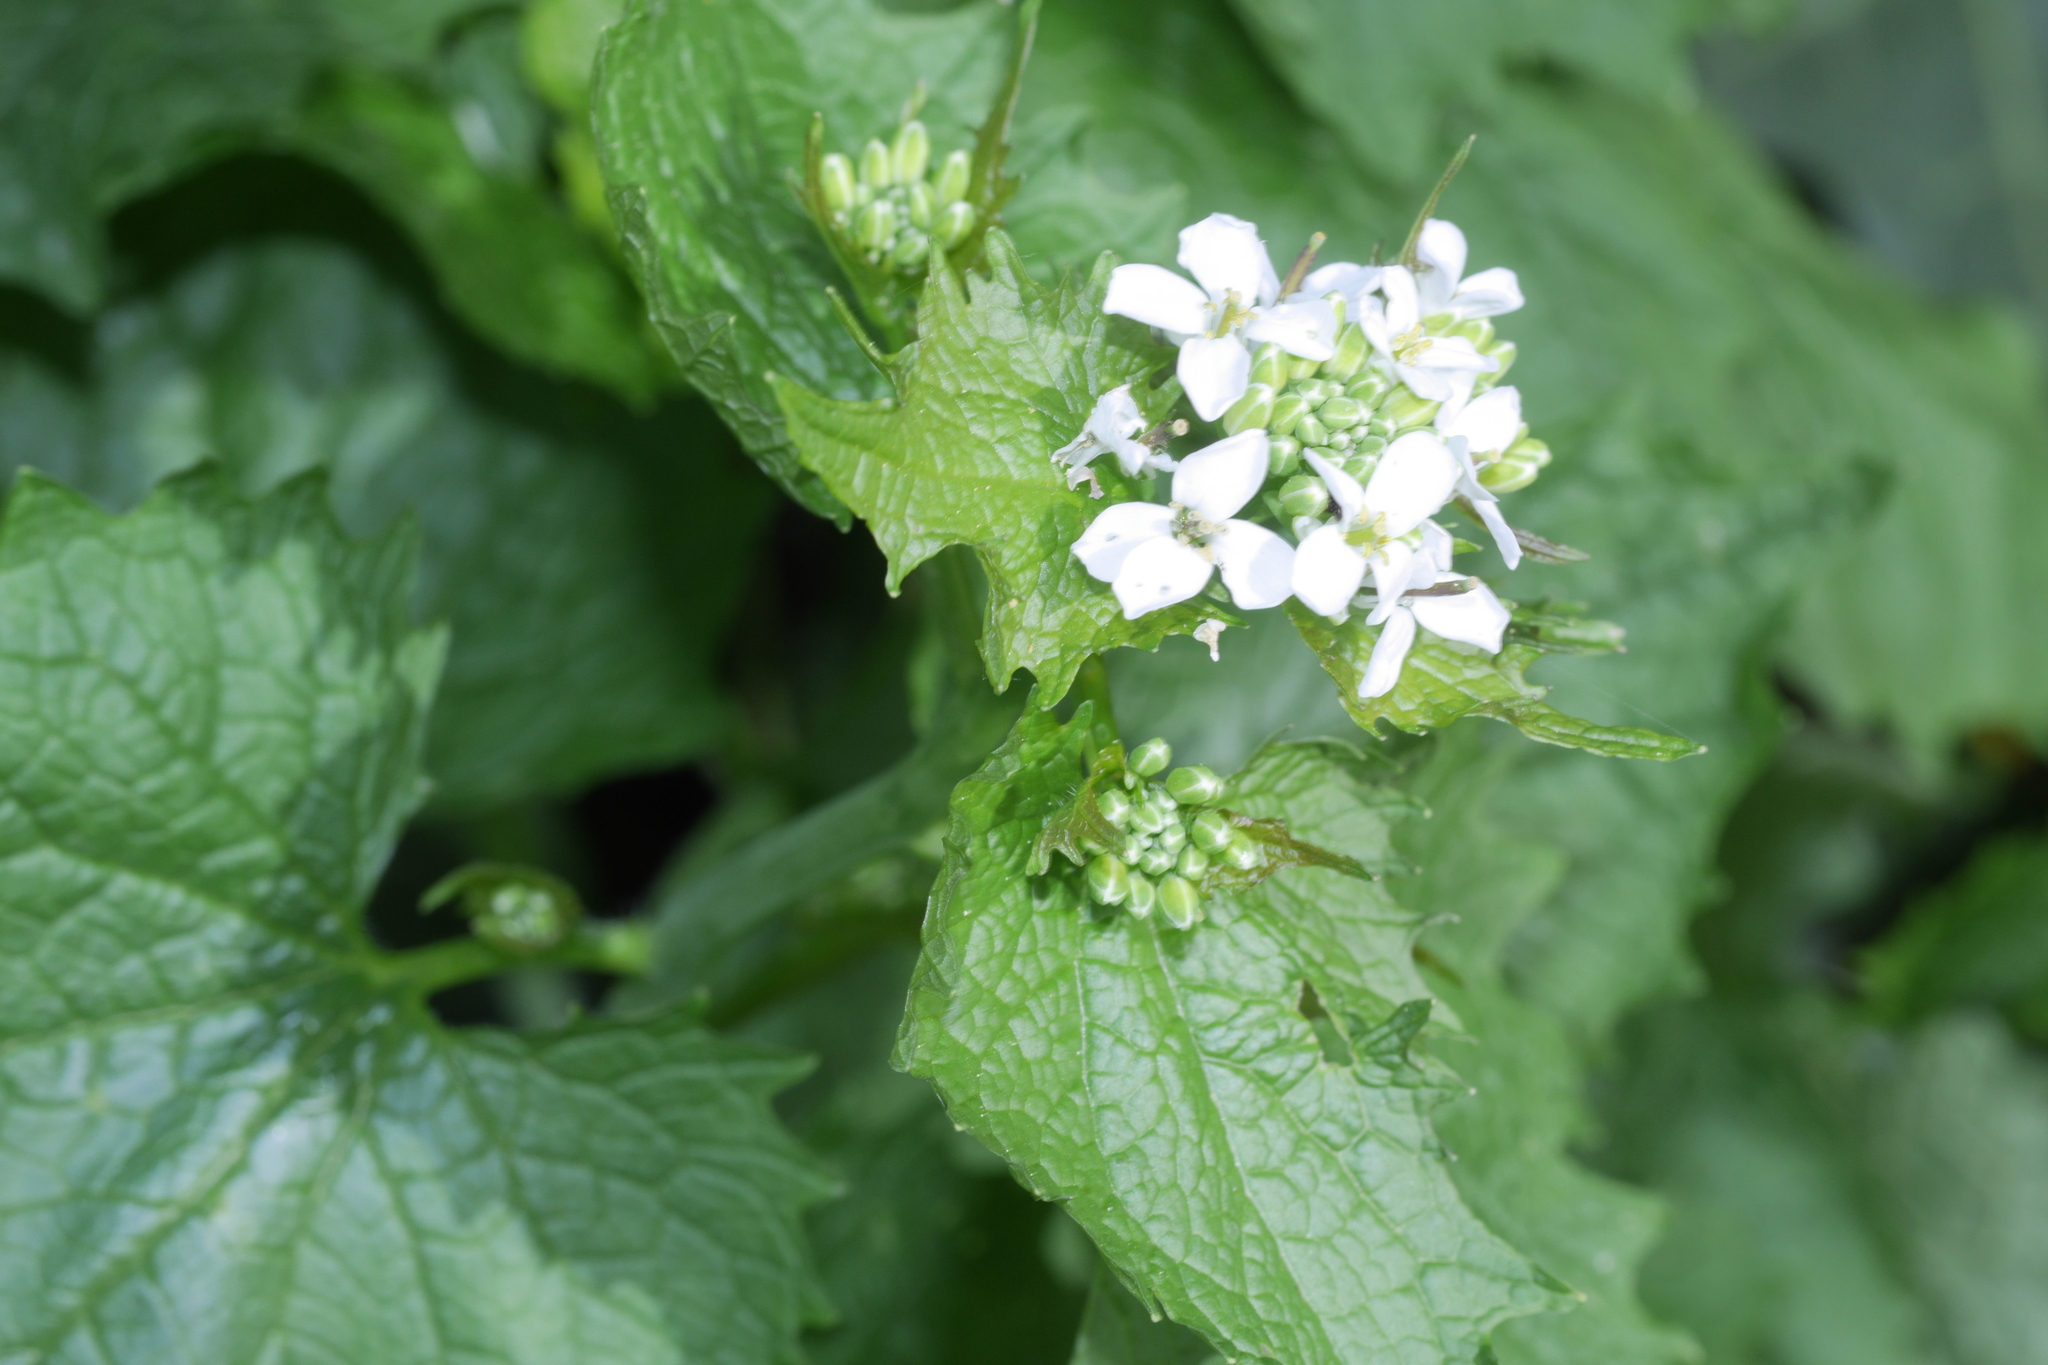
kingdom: Plantae
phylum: Tracheophyta
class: Magnoliopsida
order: Brassicales
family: Brassicaceae
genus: Alliaria
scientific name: Alliaria petiolata
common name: Garlic mustard
